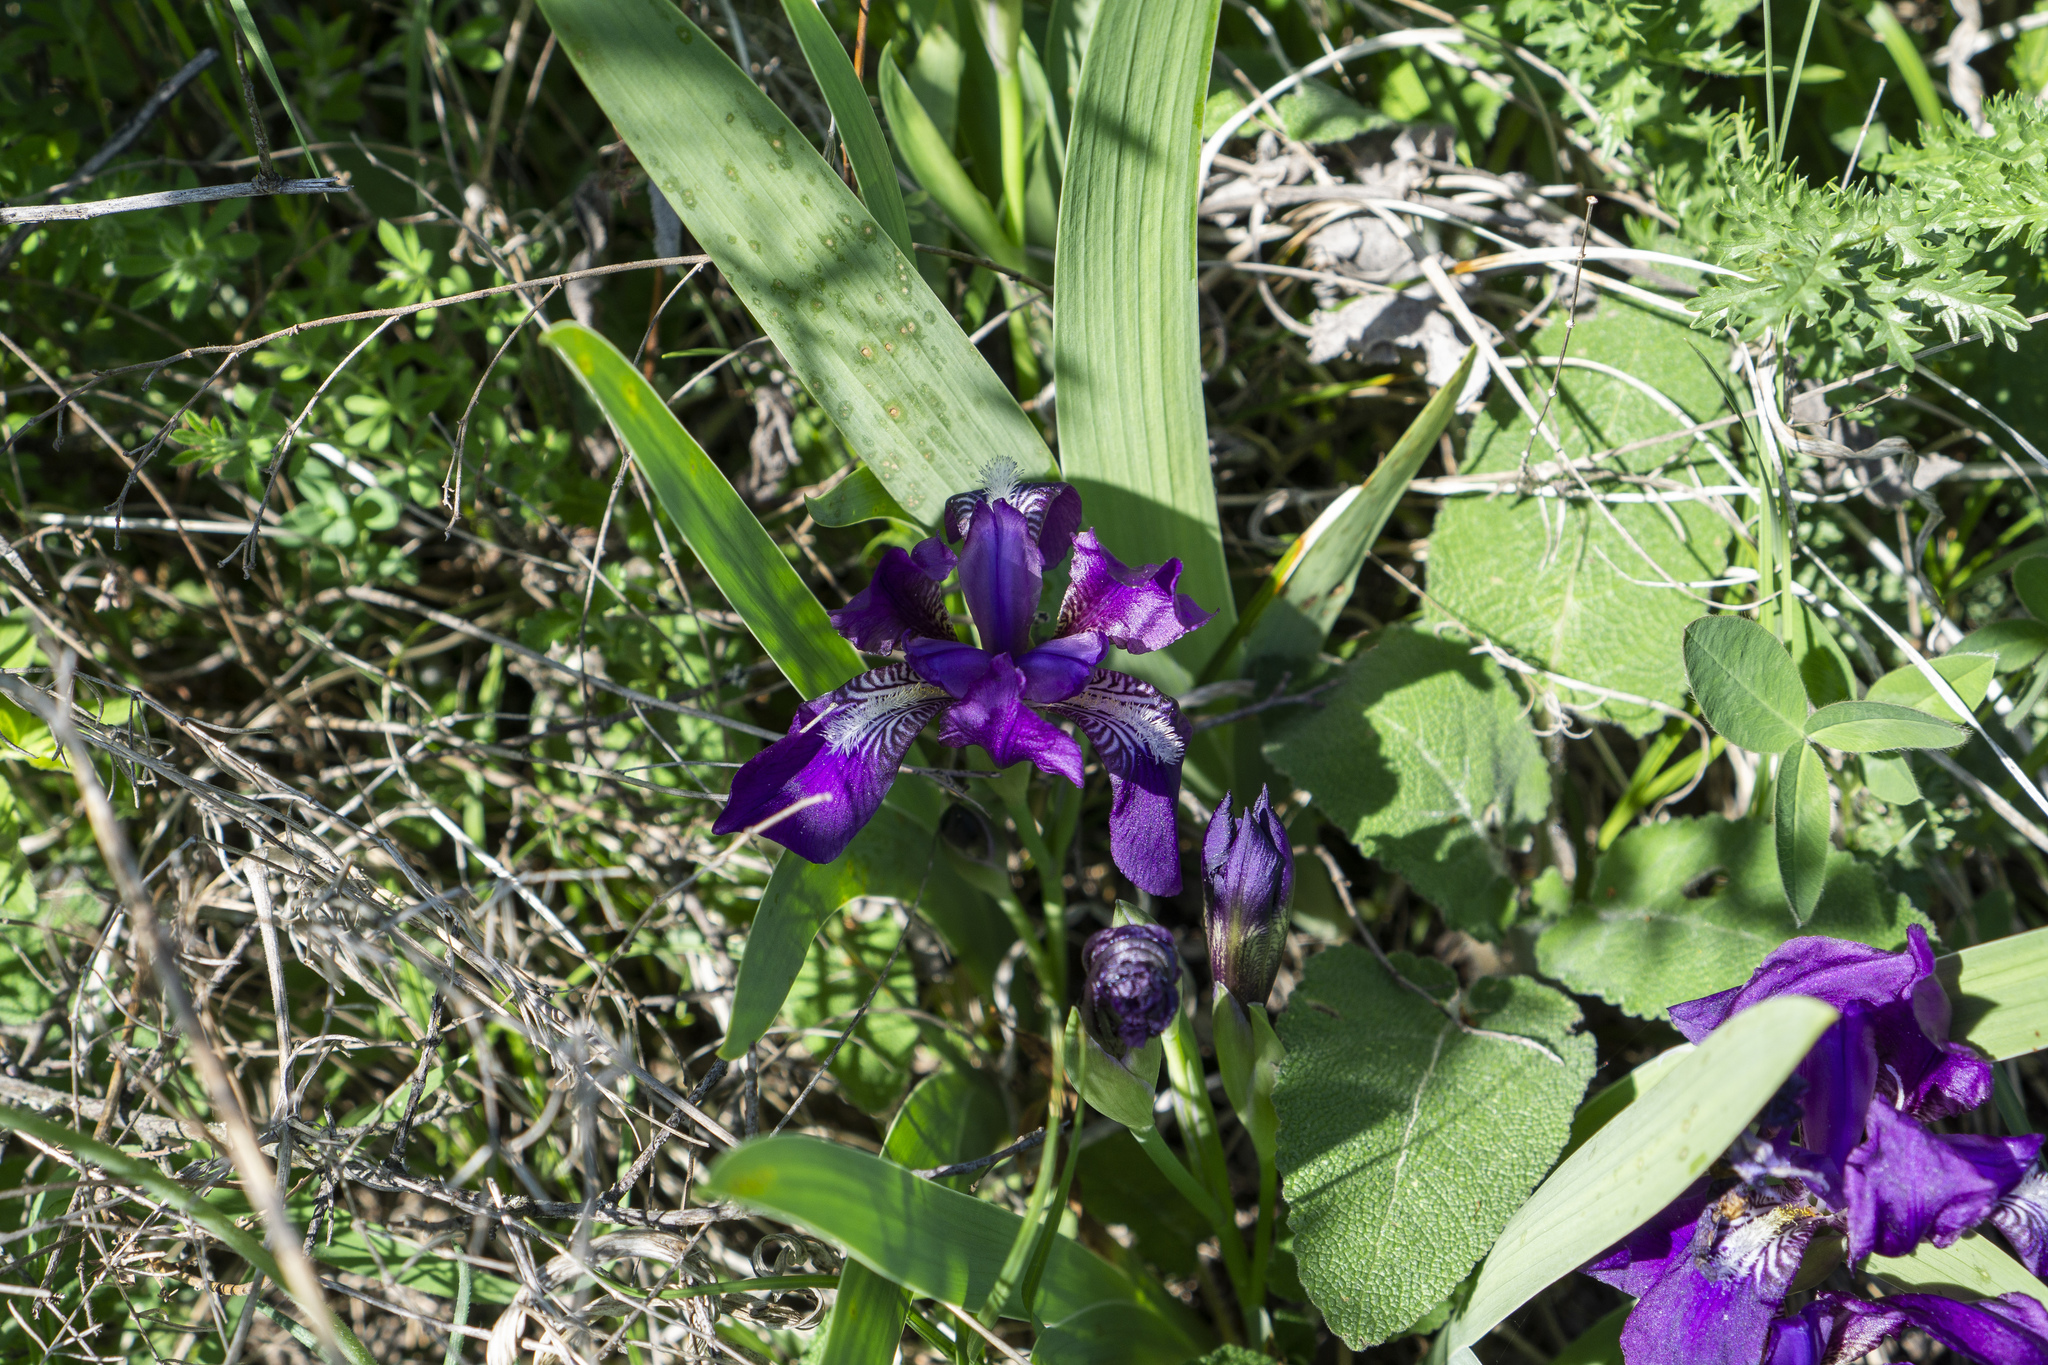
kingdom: Plantae
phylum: Tracheophyta
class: Liliopsida
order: Asparagales
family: Iridaceae
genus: Iris
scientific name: Iris aphylla
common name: Stool iris
